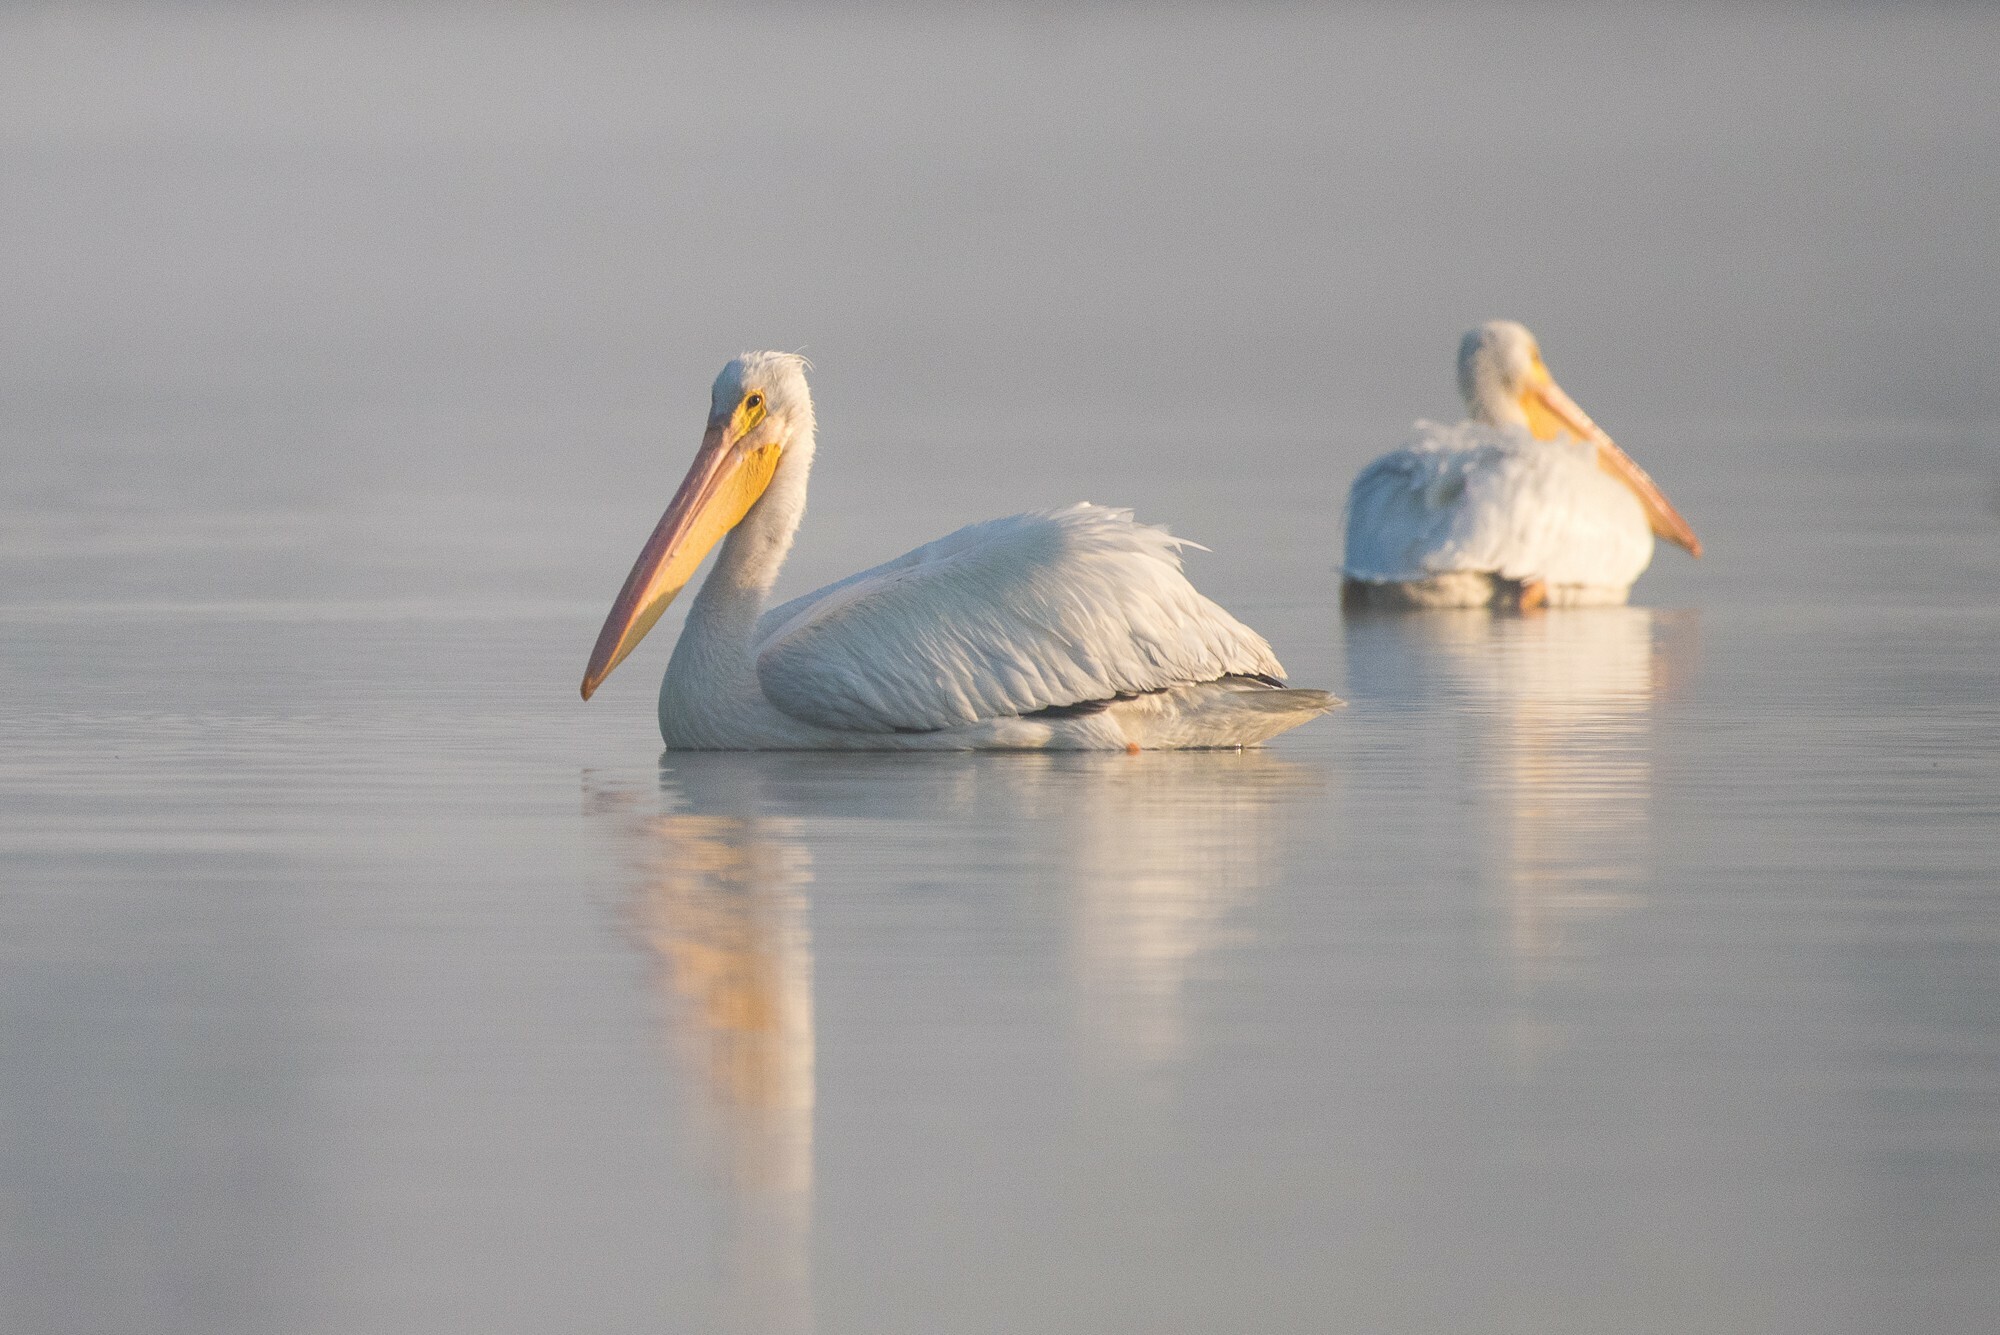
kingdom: Animalia
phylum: Chordata
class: Aves
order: Pelecaniformes
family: Pelecanidae
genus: Pelecanus
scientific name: Pelecanus erythrorhynchos
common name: American white pelican
